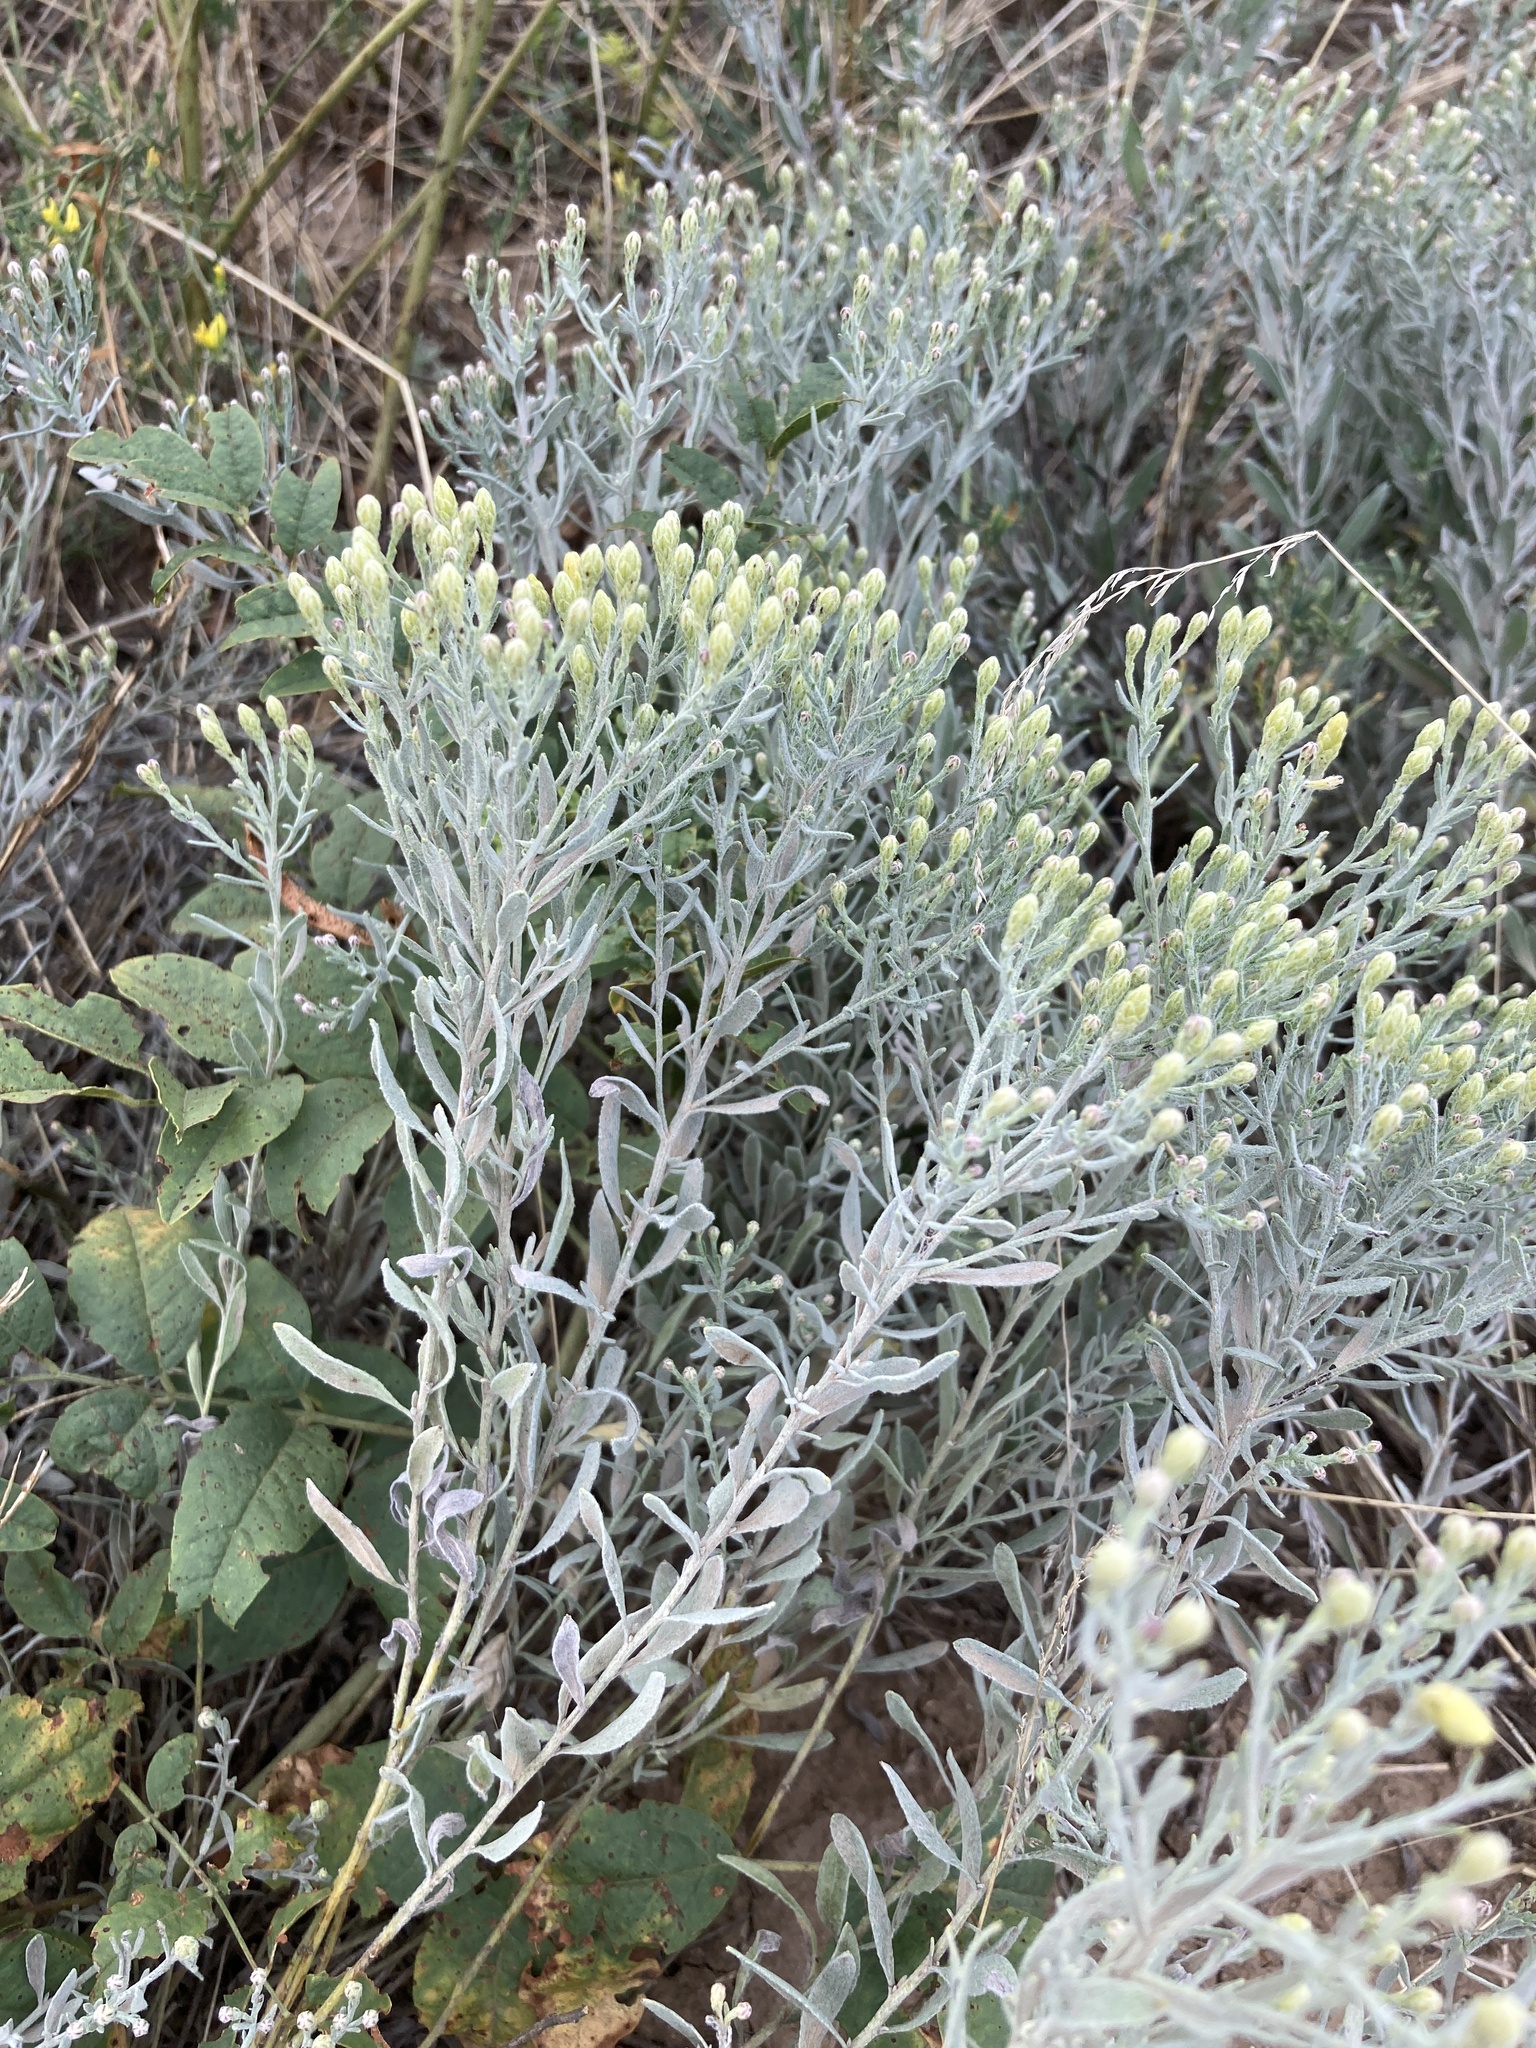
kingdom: Plantae
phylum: Tracheophyta
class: Magnoliopsida
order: Asterales
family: Asteraceae
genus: Galatella
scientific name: Galatella villosa
